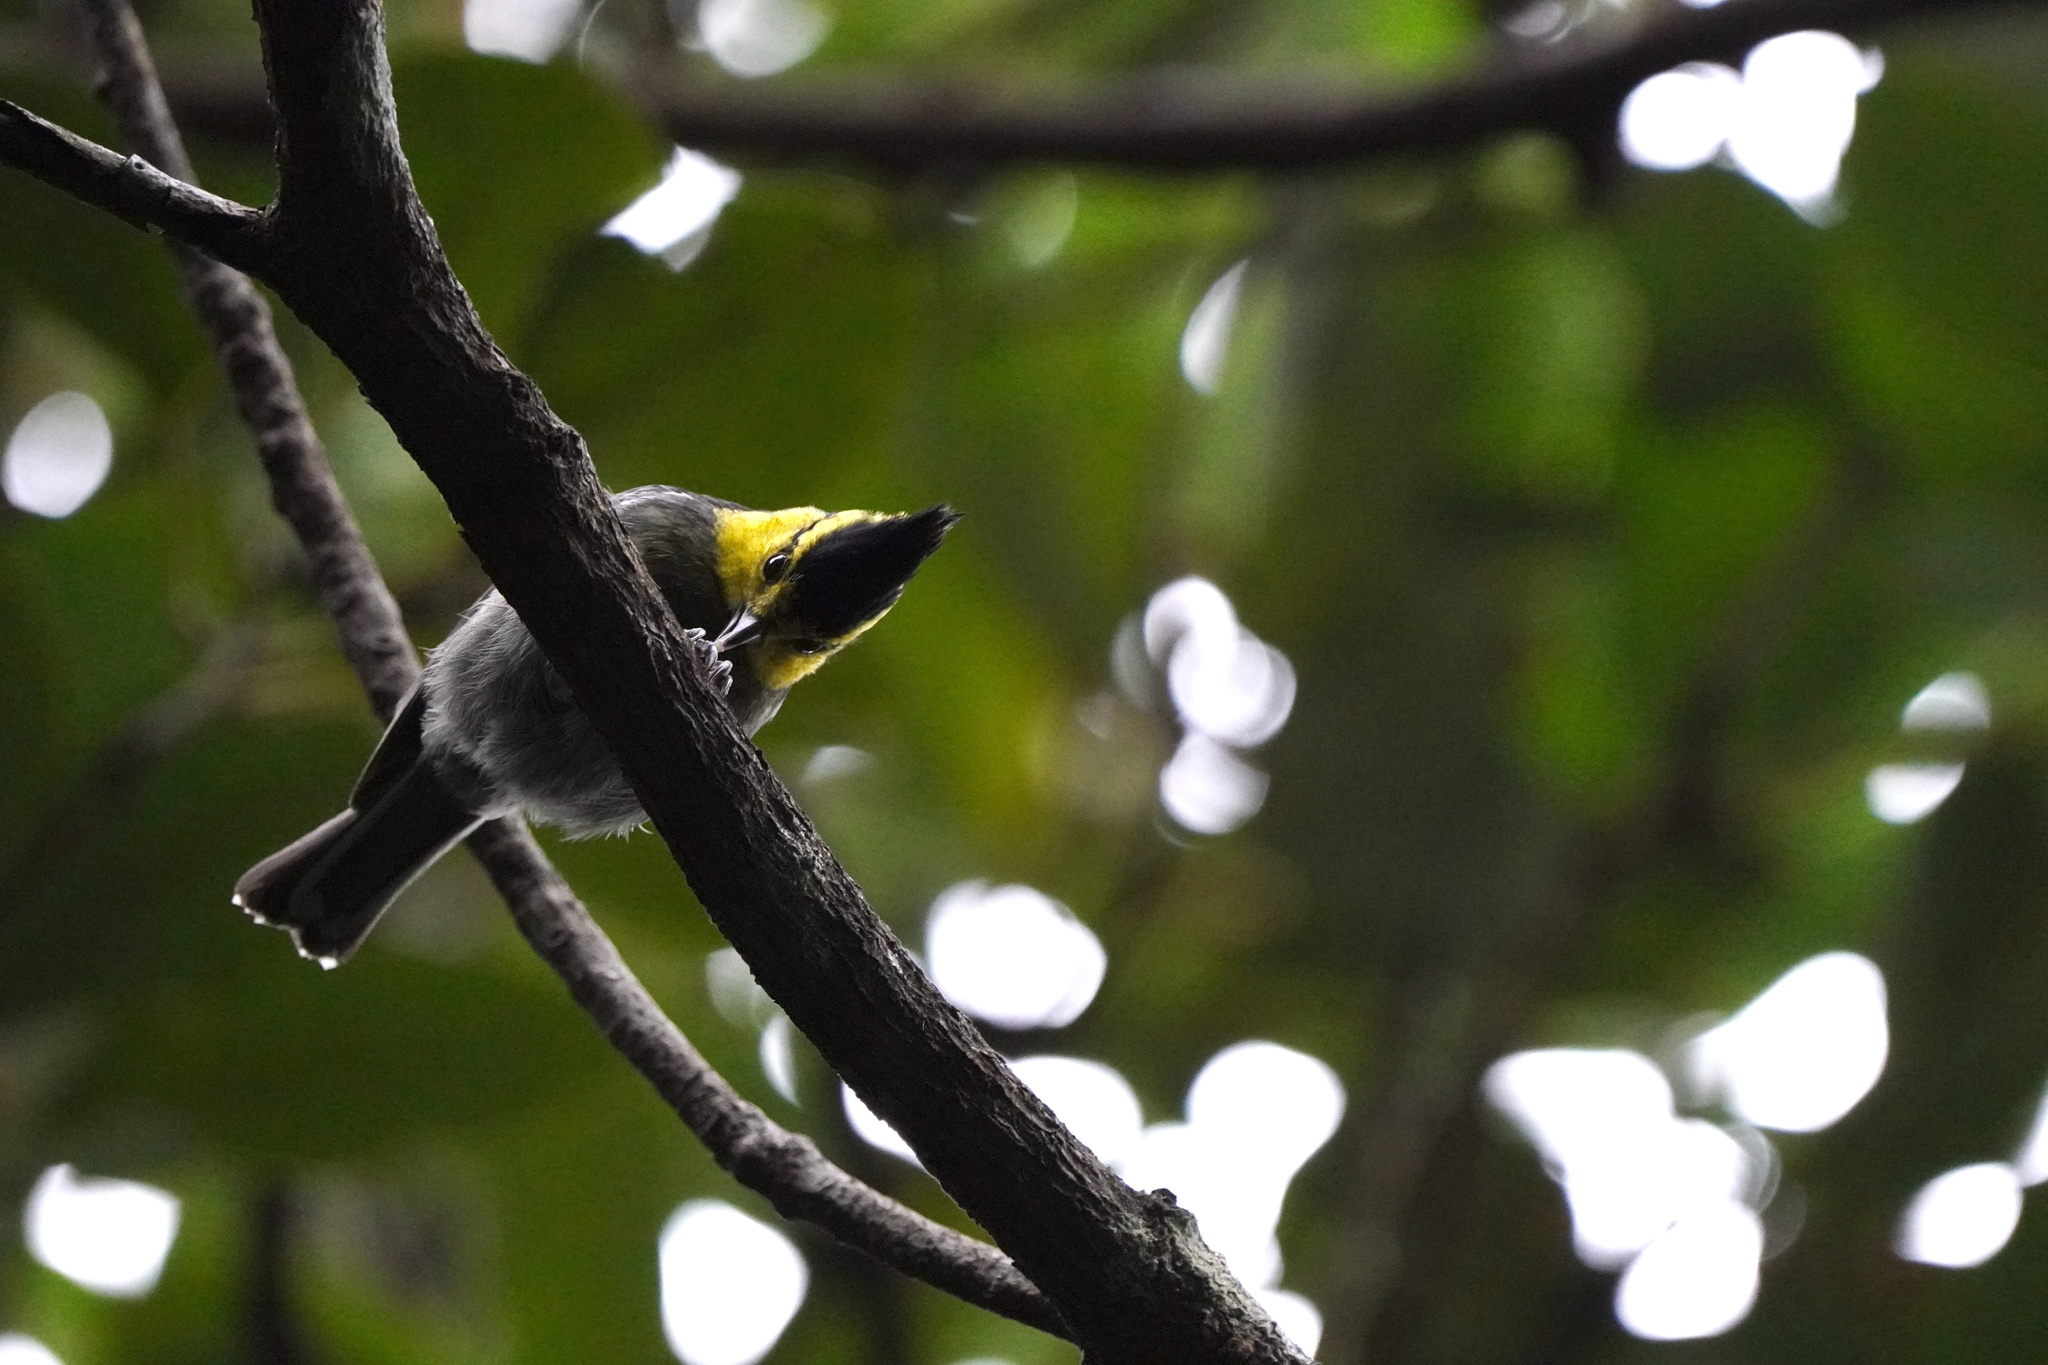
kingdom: Animalia
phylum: Chordata
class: Aves
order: Passeriformes
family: Paridae
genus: Parus
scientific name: Parus spilonotus
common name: Yellow-cheeked tit
